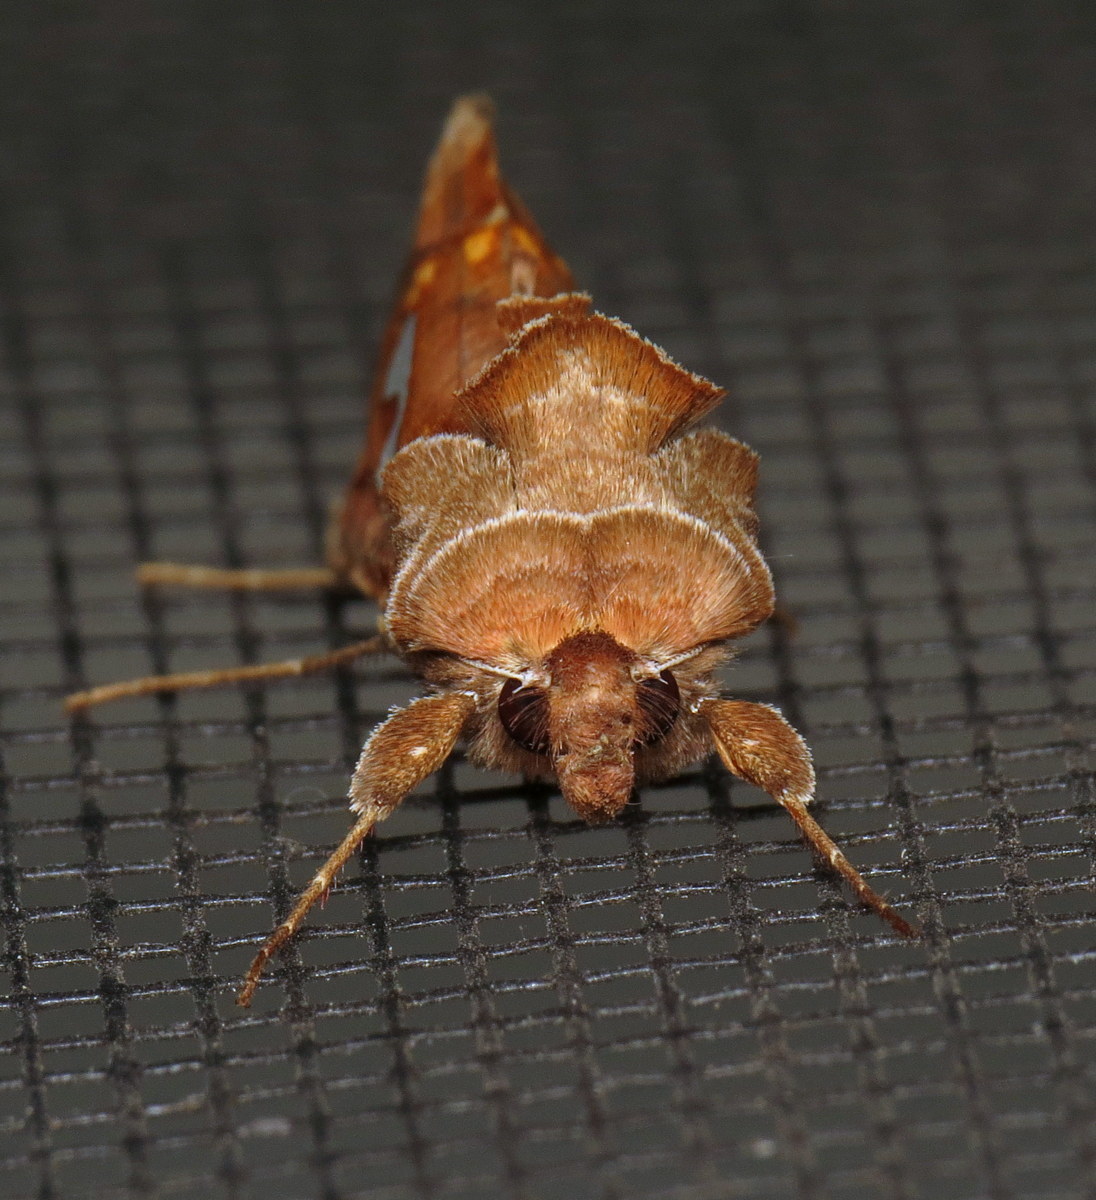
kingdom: Animalia
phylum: Arthropoda
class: Insecta
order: Lepidoptera
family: Noctuidae
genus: Megalographa
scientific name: Megalographa biloba
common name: Cutworm
